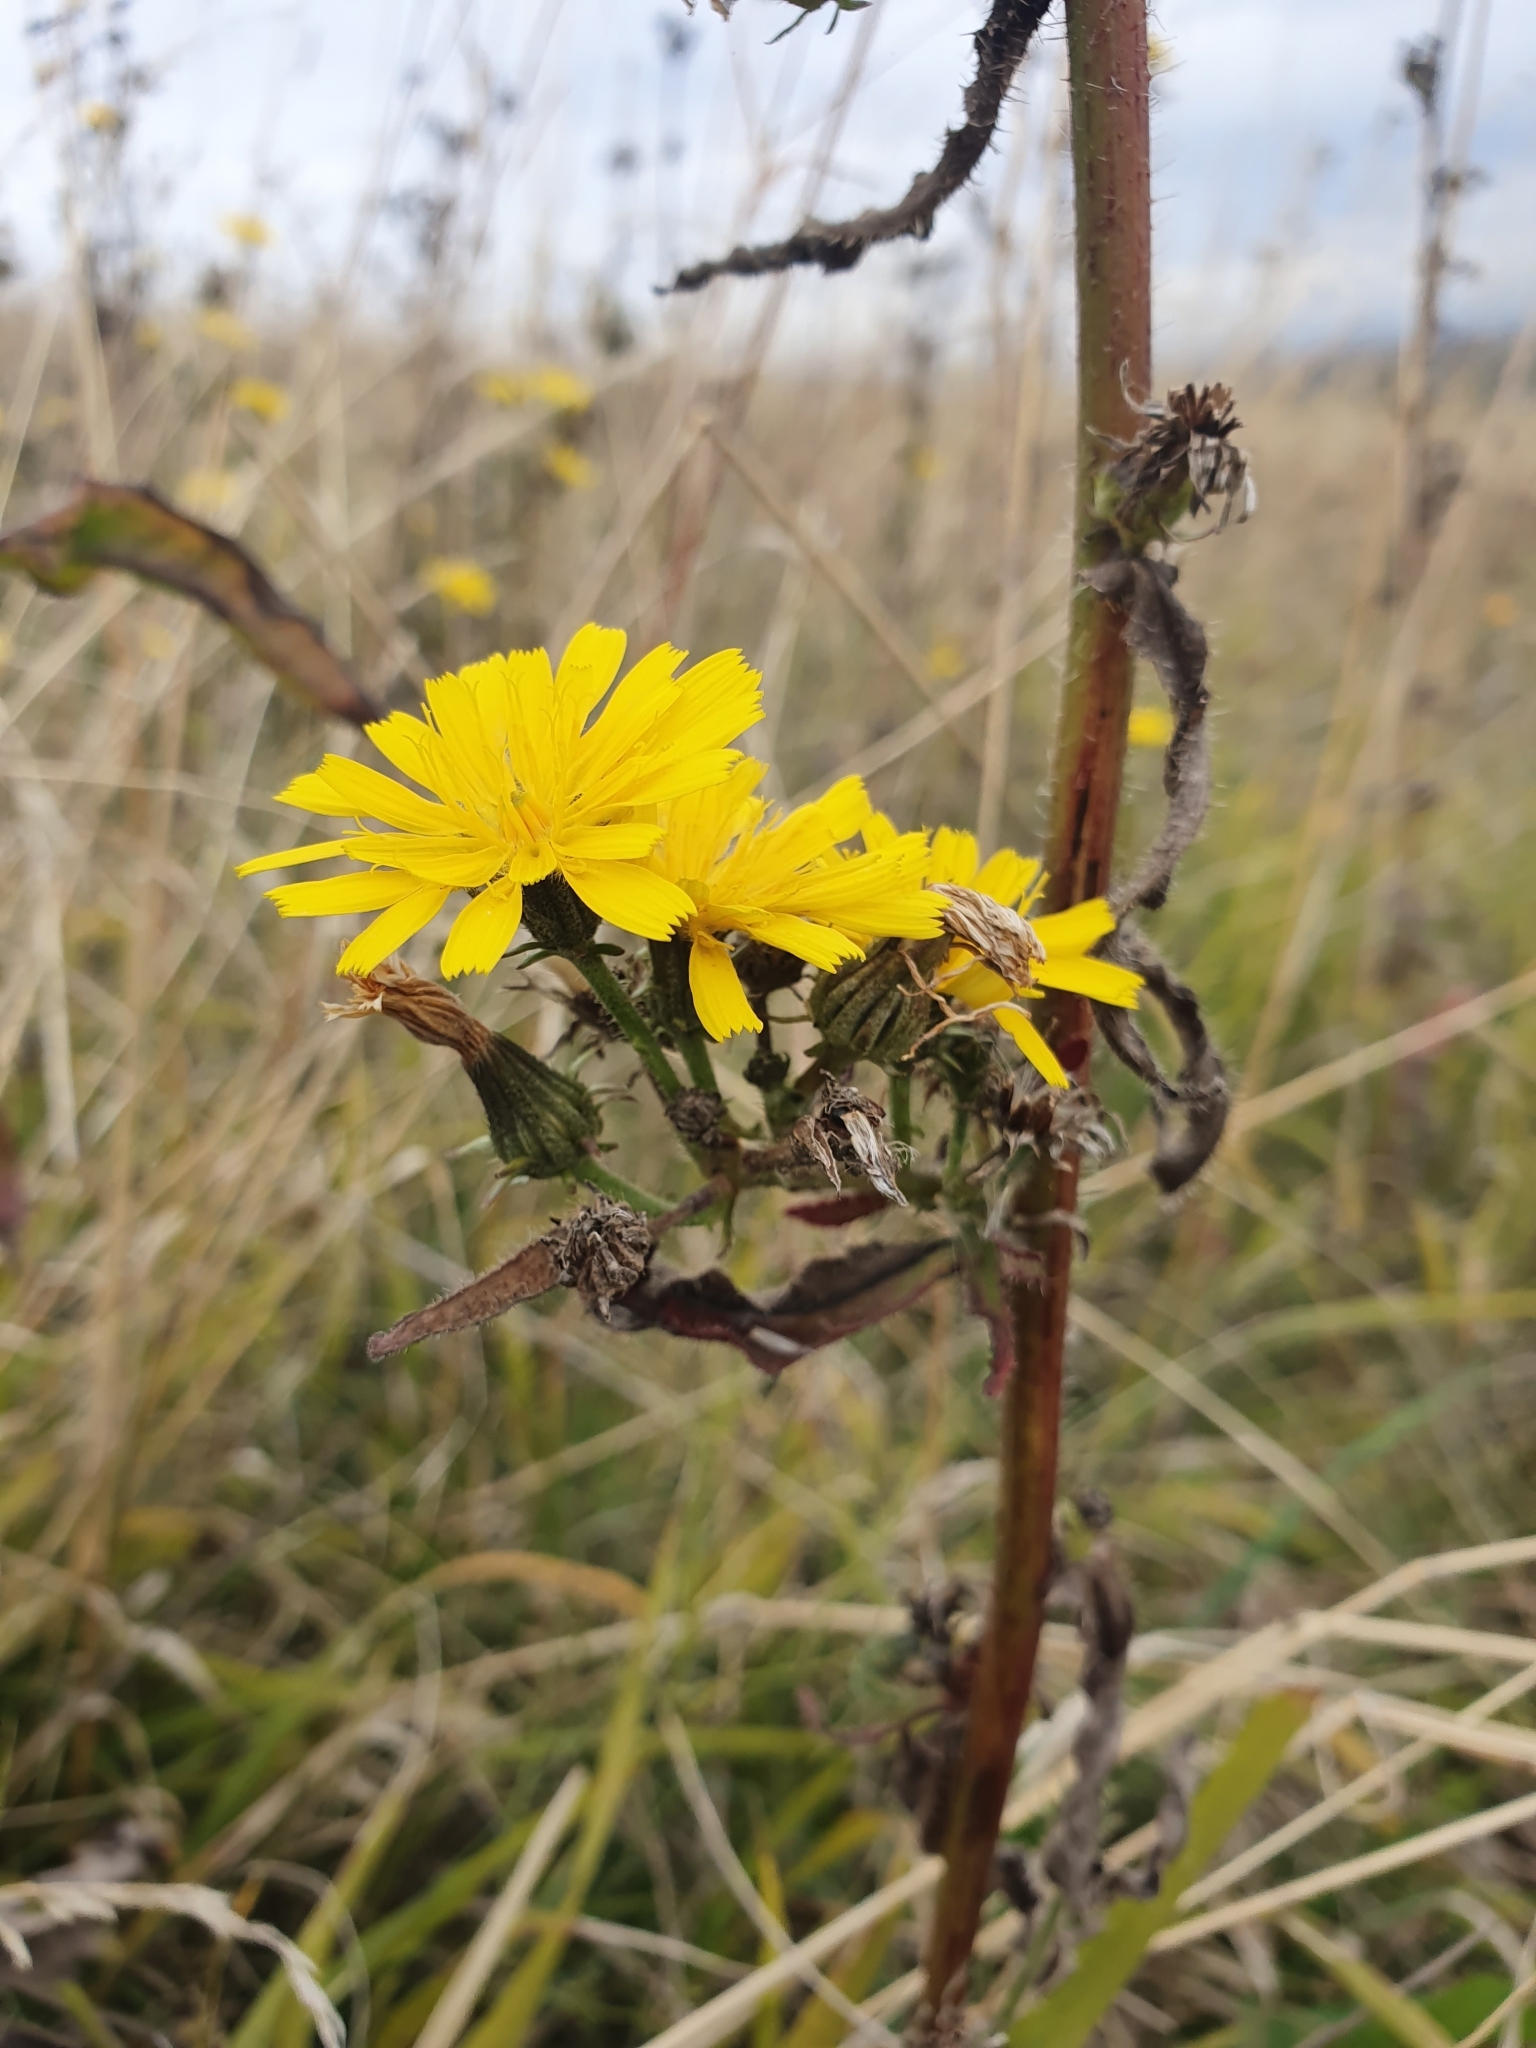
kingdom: Plantae
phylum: Tracheophyta
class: Magnoliopsida
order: Asterales
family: Asteraceae
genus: Picris
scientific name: Picris hieracioides
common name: Hawkweed oxtongue
